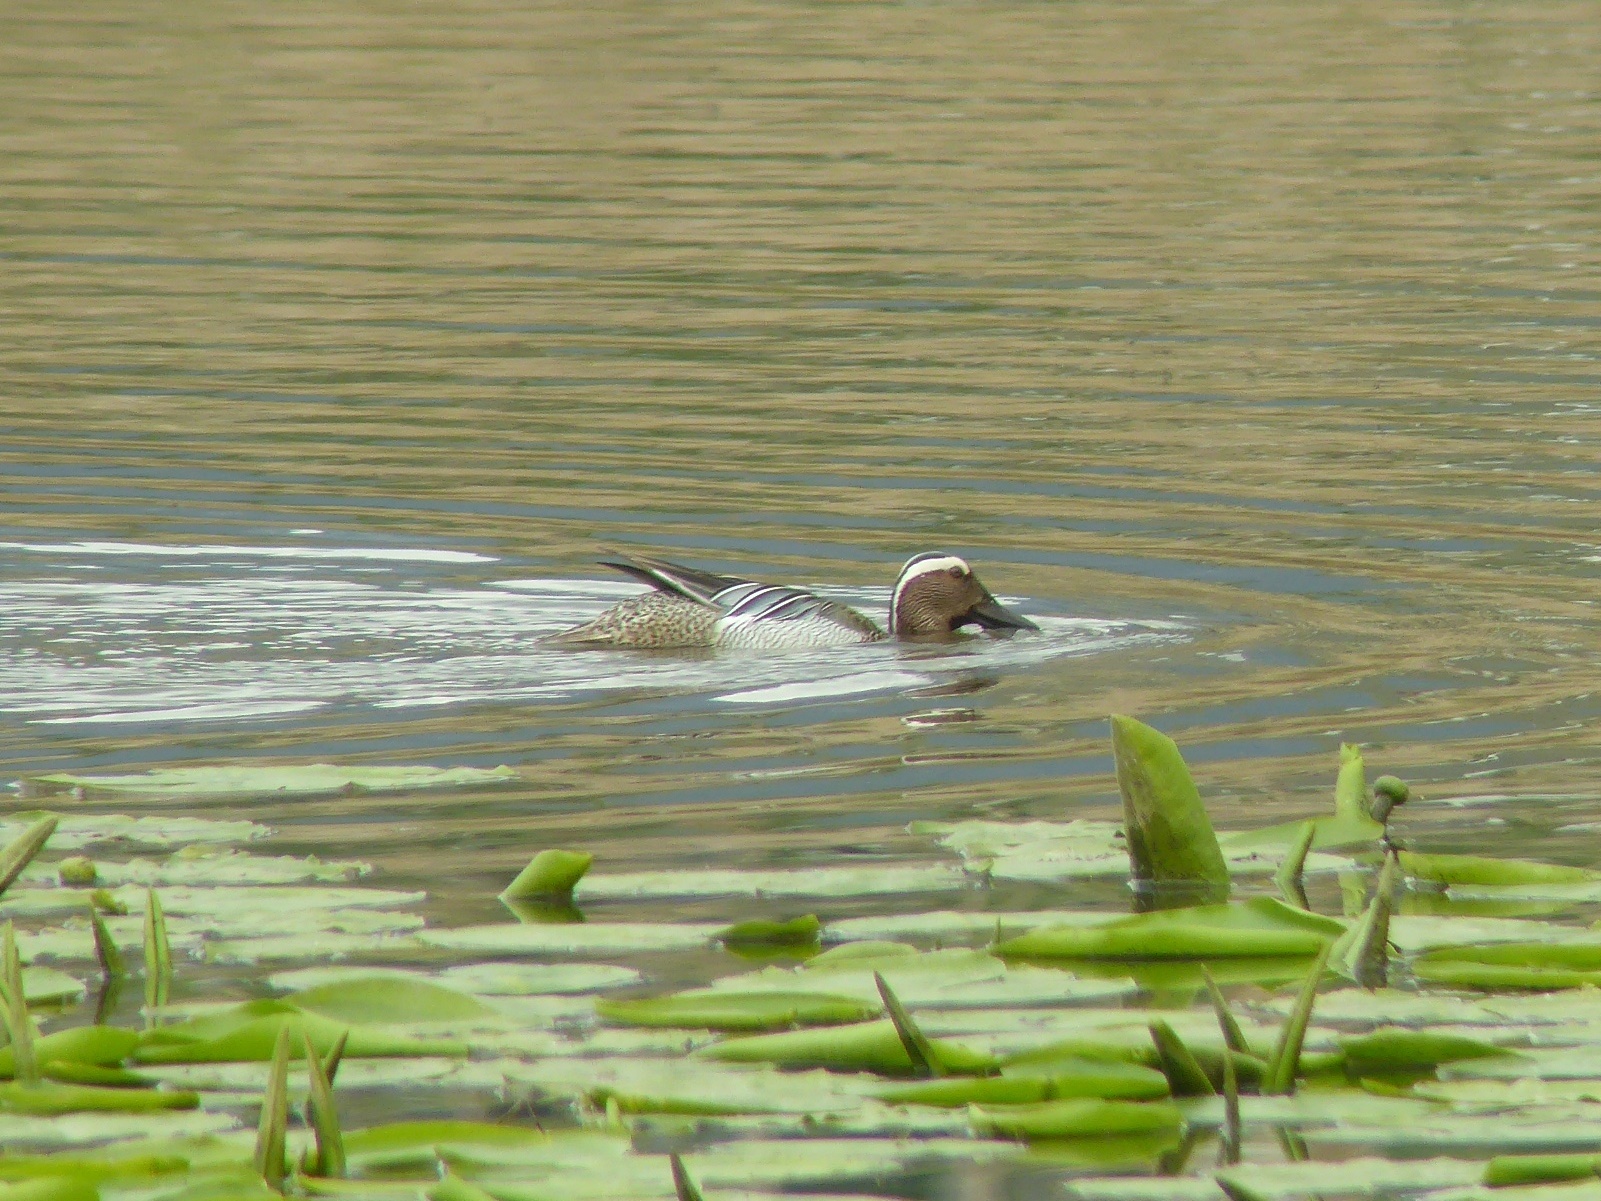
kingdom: Animalia
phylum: Chordata
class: Aves
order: Anseriformes
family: Anatidae
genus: Spatula
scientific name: Spatula querquedula
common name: Garganey
